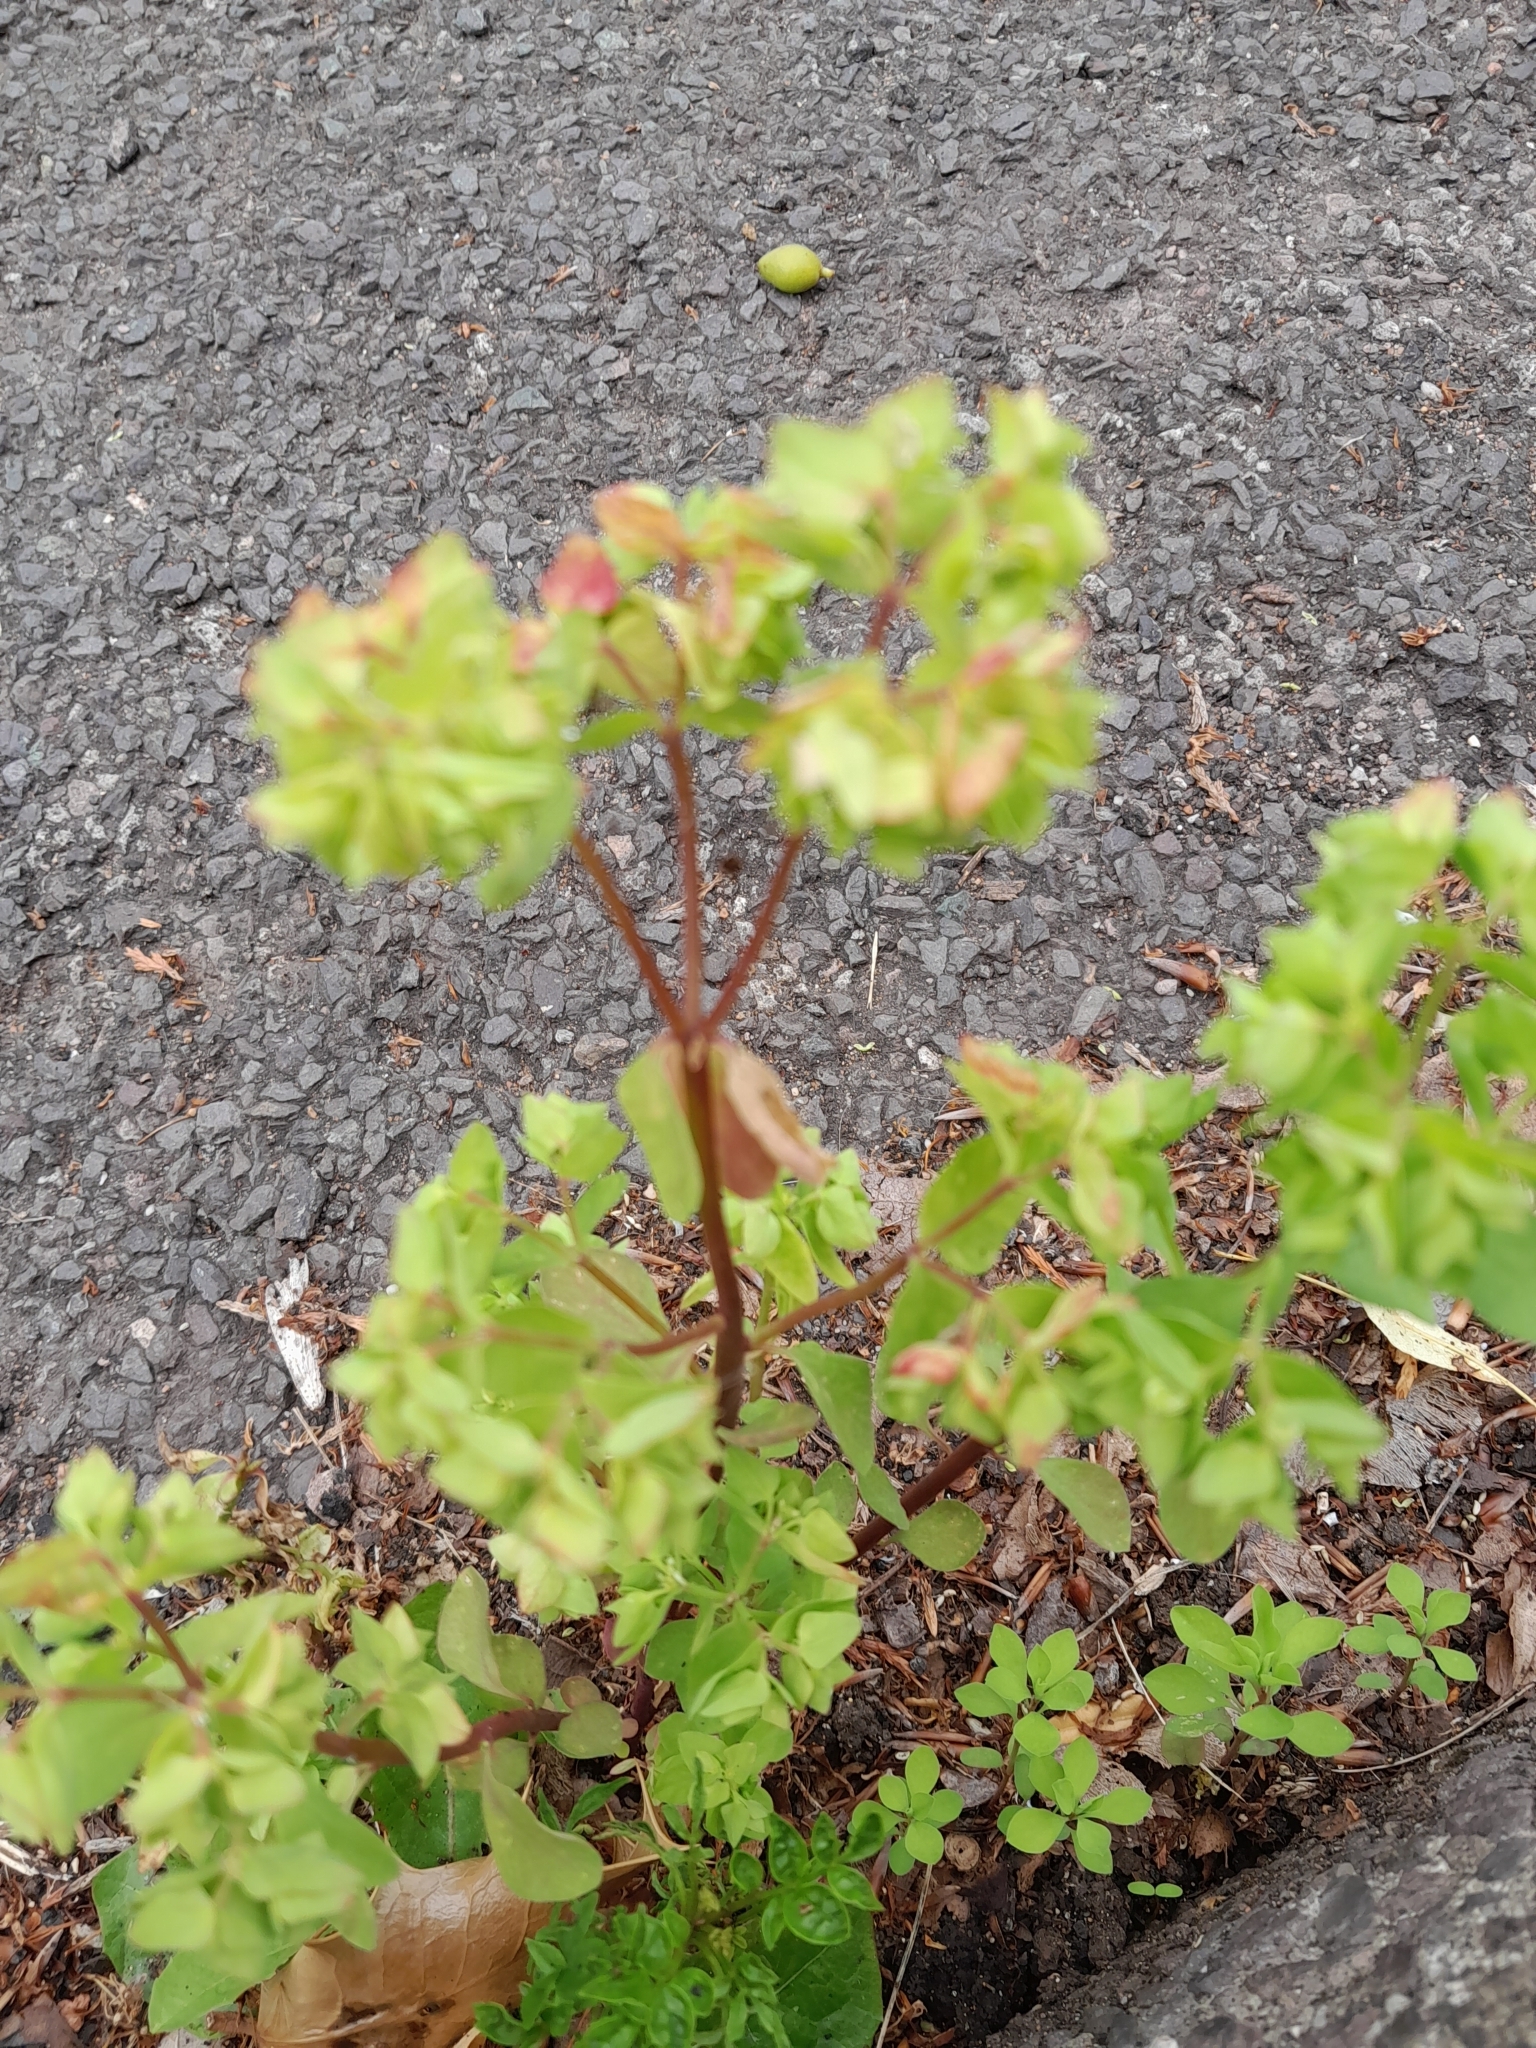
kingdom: Plantae
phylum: Tracheophyta
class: Magnoliopsida
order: Malpighiales
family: Euphorbiaceae
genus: Euphorbia
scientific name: Euphorbia peplus
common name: Petty spurge
